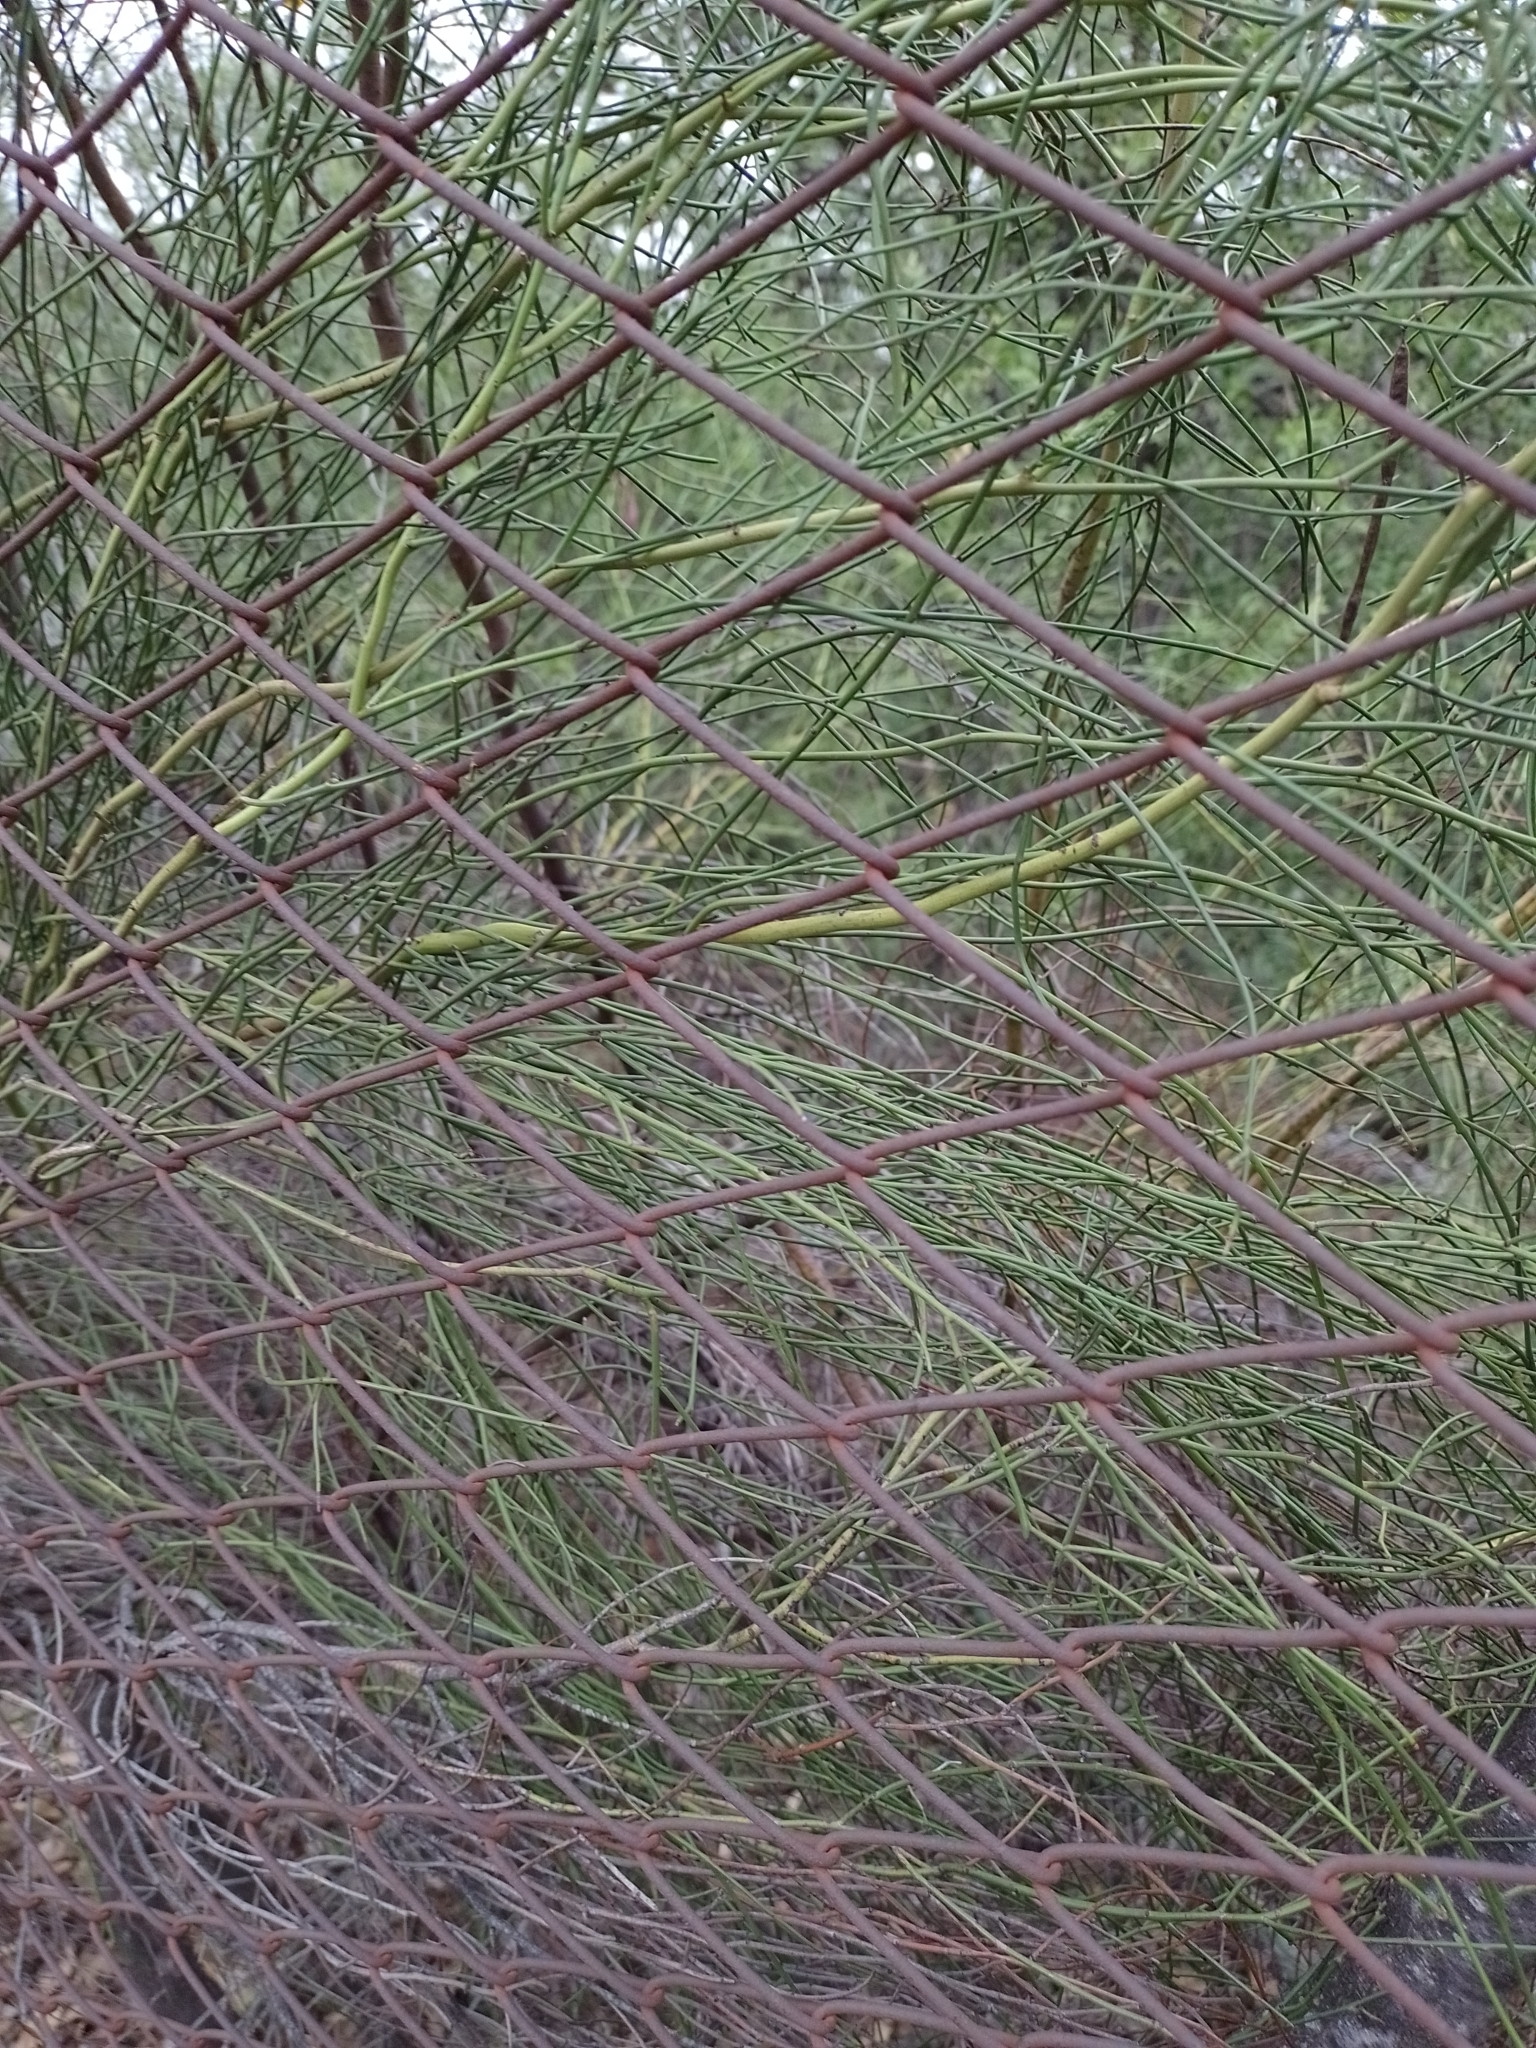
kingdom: Plantae
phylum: Tracheophyta
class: Magnoliopsida
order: Fabales
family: Fabaceae
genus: Senna
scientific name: Senna pachyrrhiza
